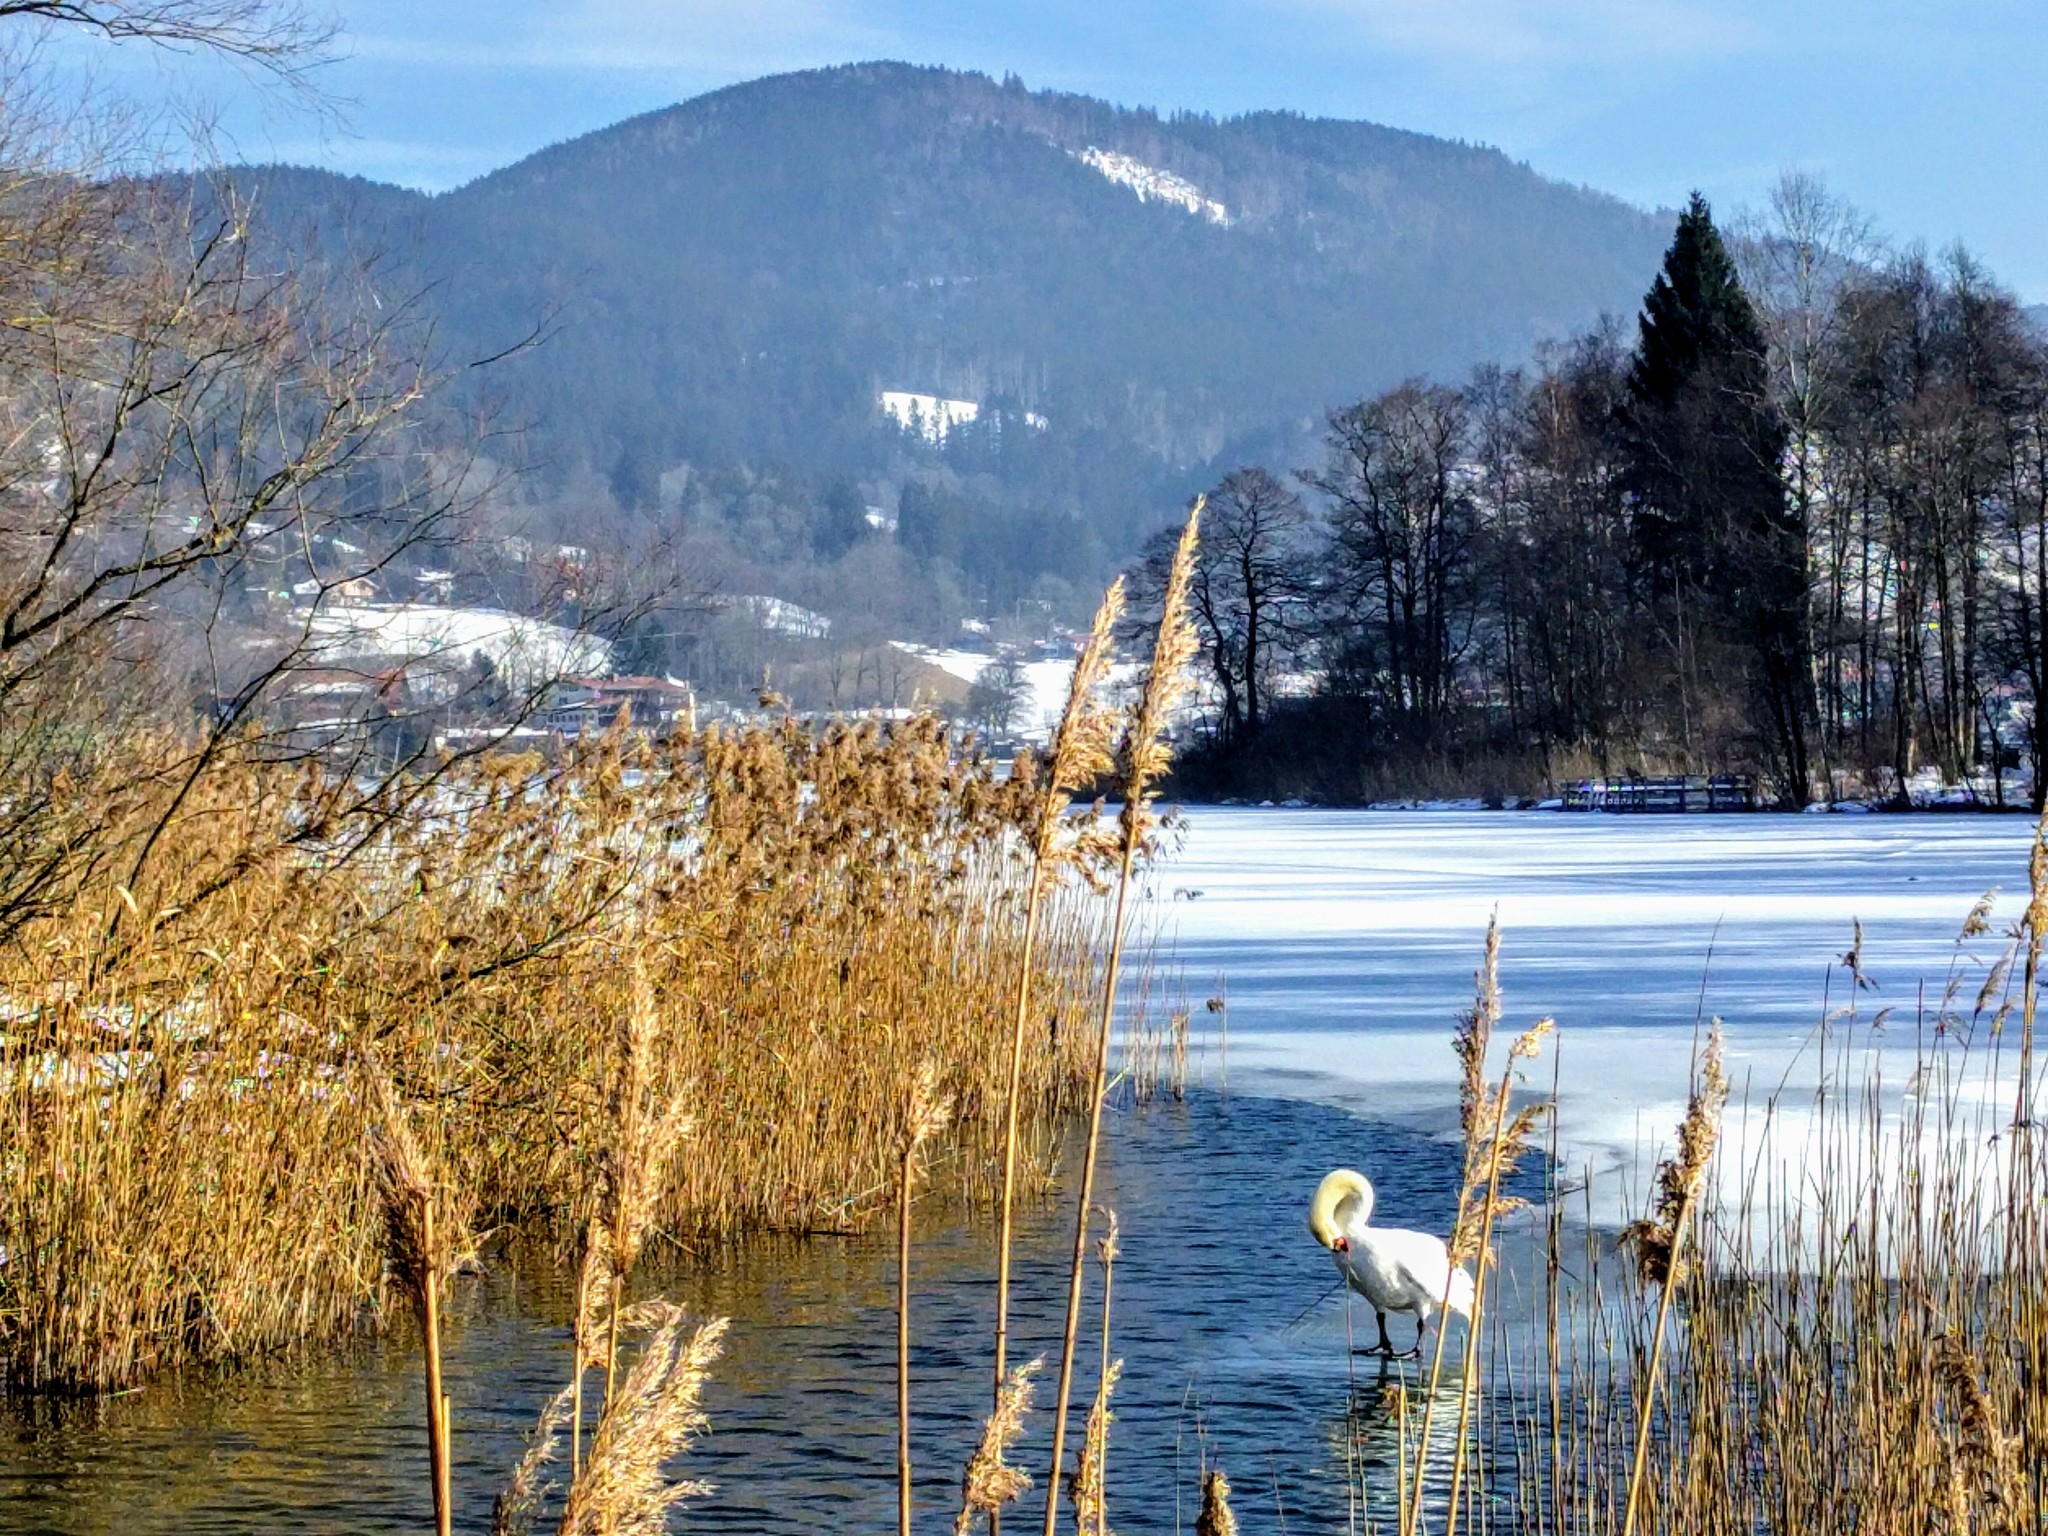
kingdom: Animalia
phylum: Chordata
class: Aves
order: Anseriformes
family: Anatidae
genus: Cygnus
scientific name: Cygnus olor
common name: Mute swan
